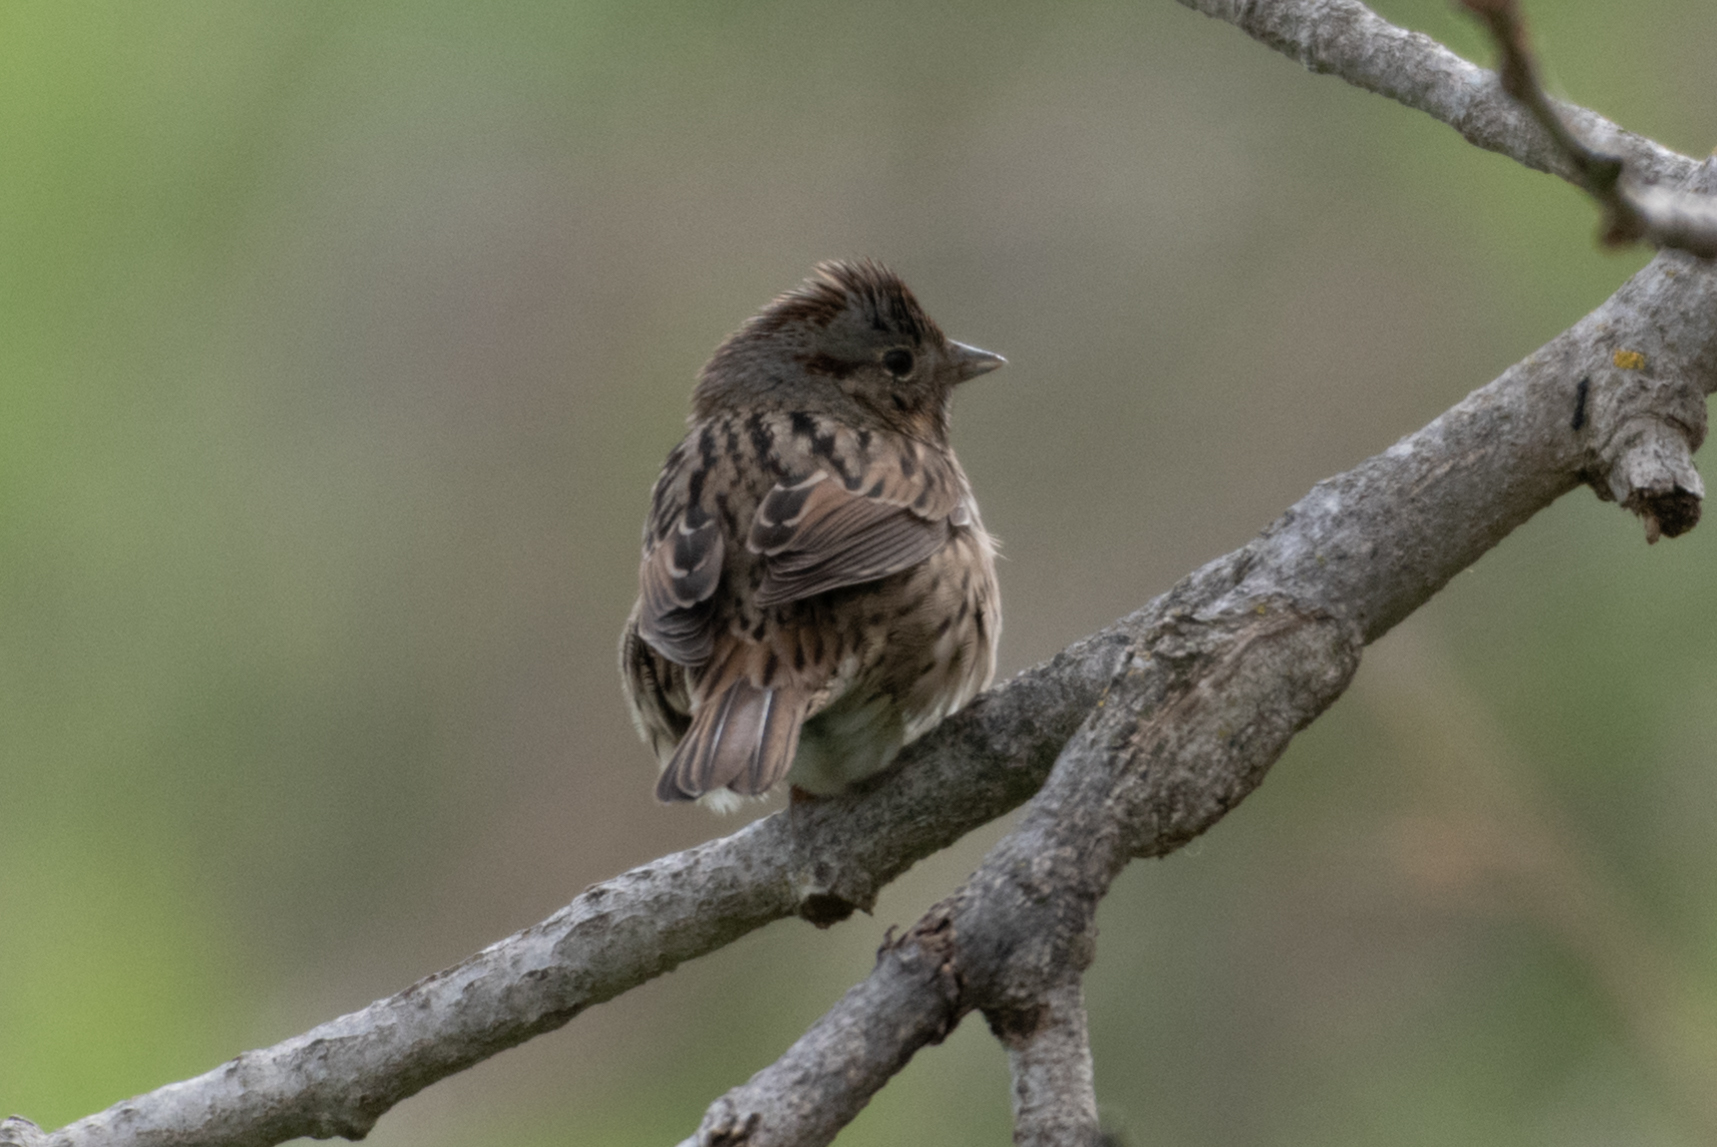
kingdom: Animalia
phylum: Chordata
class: Aves
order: Passeriformes
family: Passerellidae
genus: Melospiza
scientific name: Melospiza lincolnii
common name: Lincoln's sparrow
